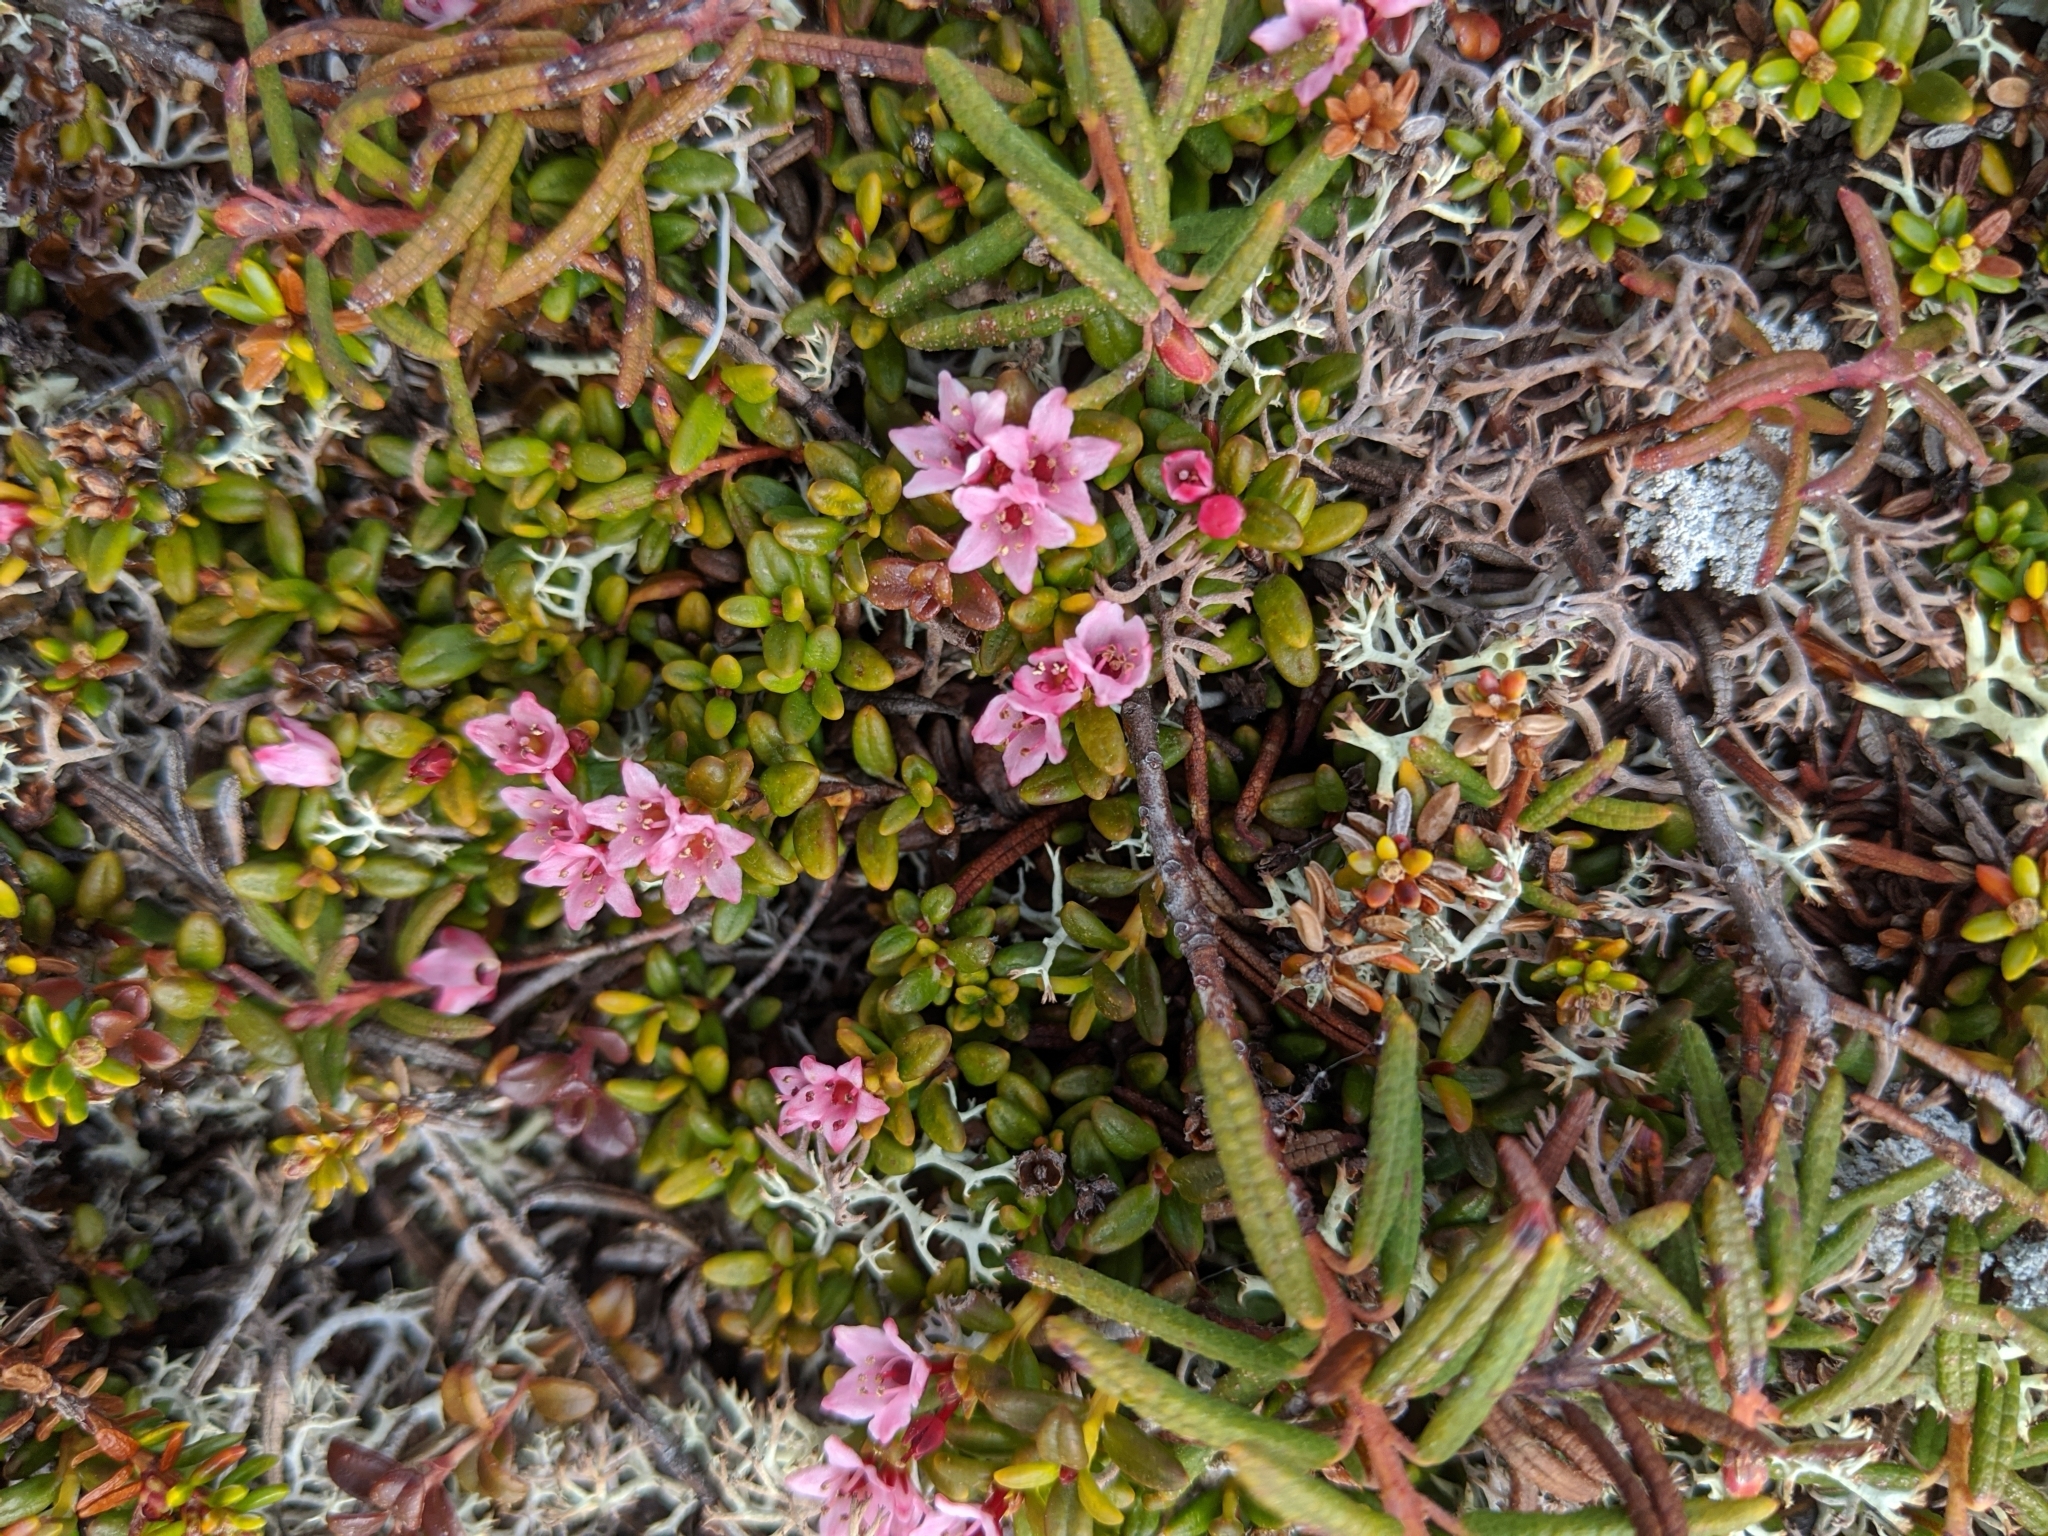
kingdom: Plantae
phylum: Tracheophyta
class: Magnoliopsida
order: Ericales
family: Ericaceae
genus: Kalmia
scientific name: Kalmia procumbens
